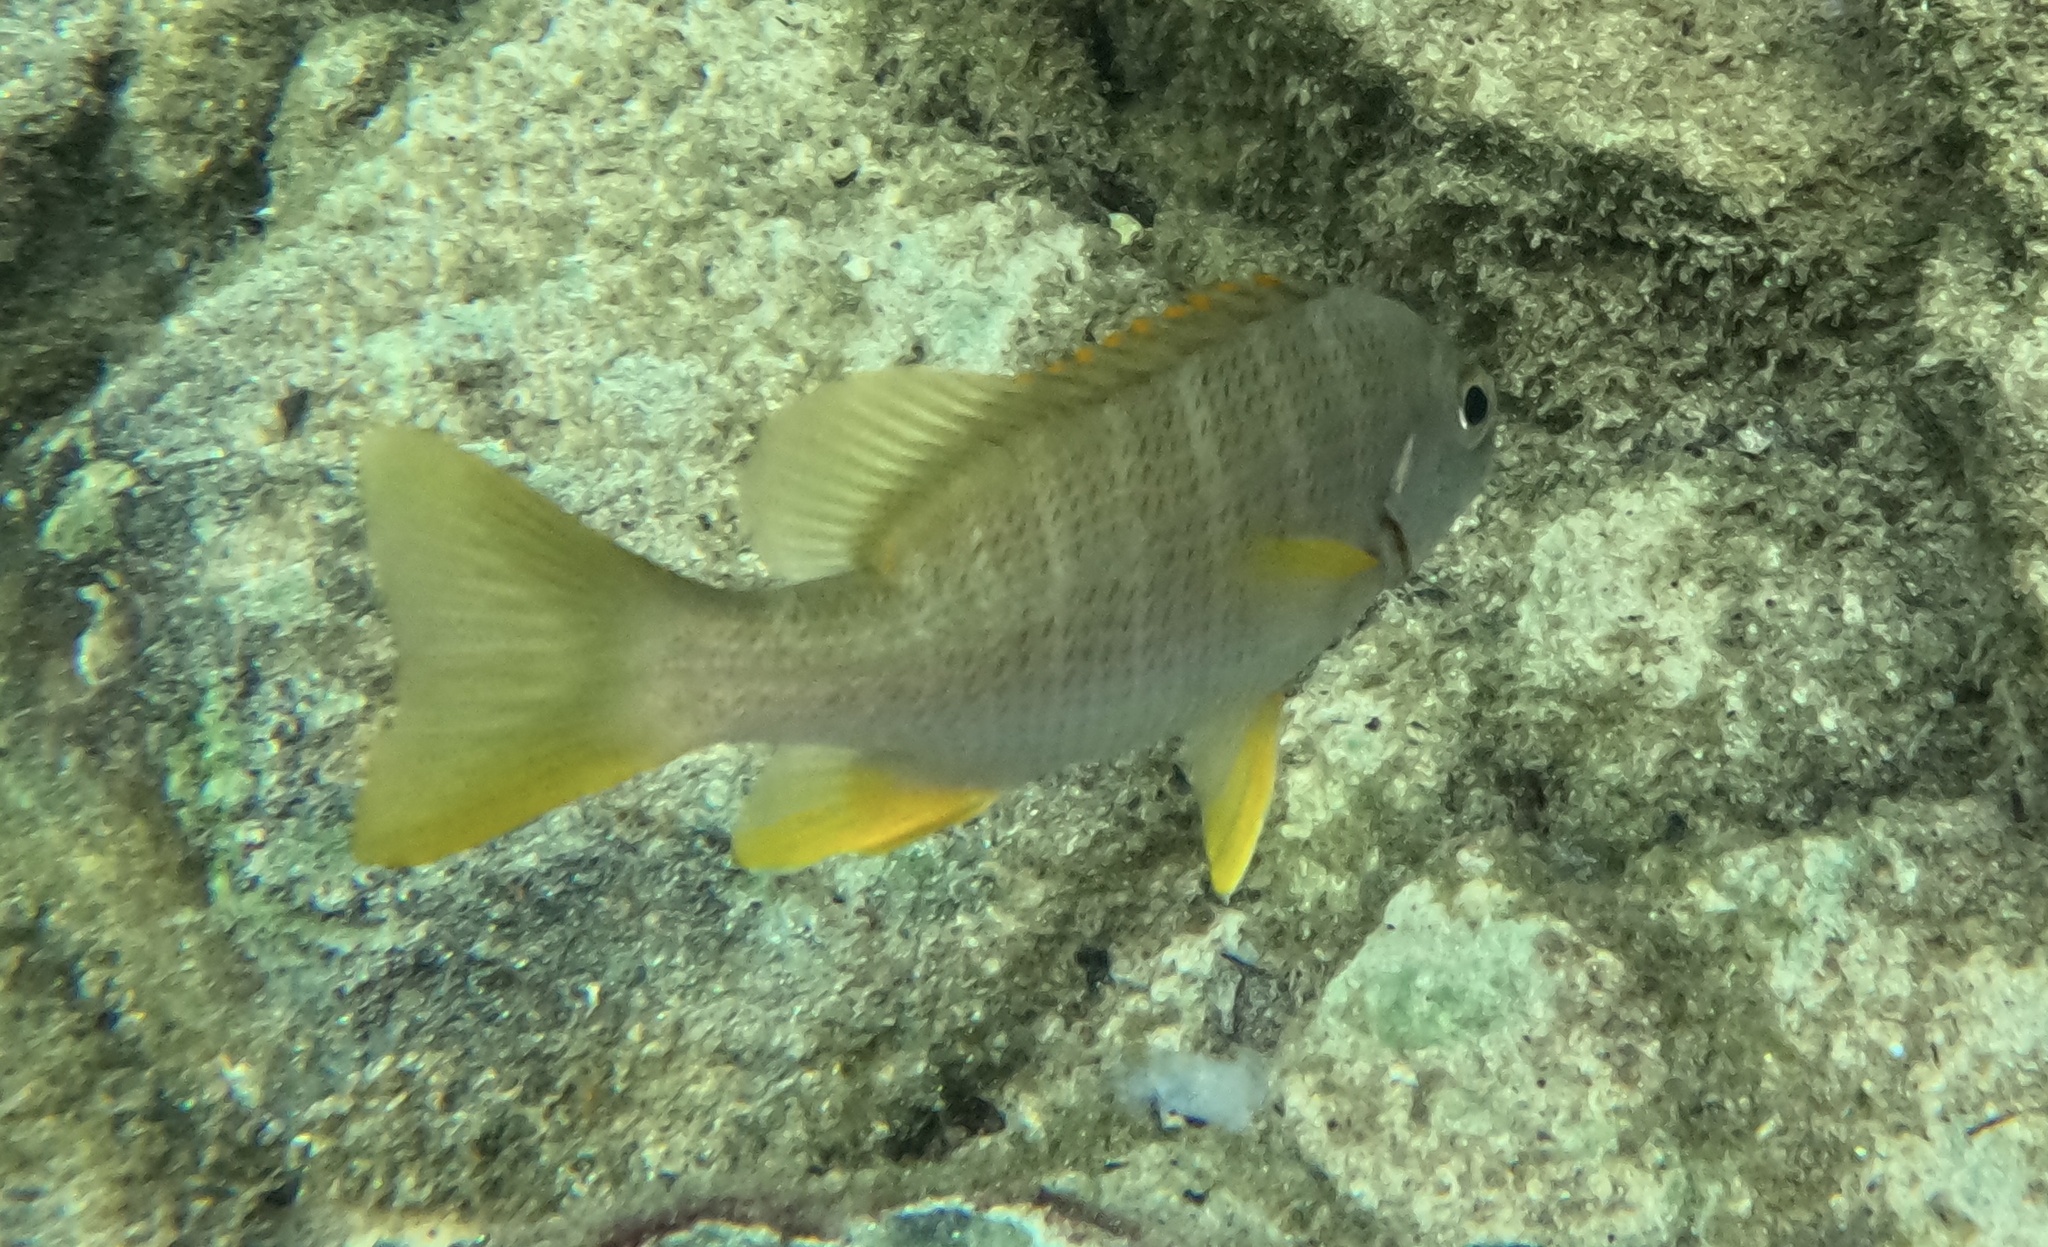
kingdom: Animalia
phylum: Chordata
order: Perciformes
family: Lutjanidae
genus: Lutjanus
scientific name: Lutjanus apodus
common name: Schoolmaster
